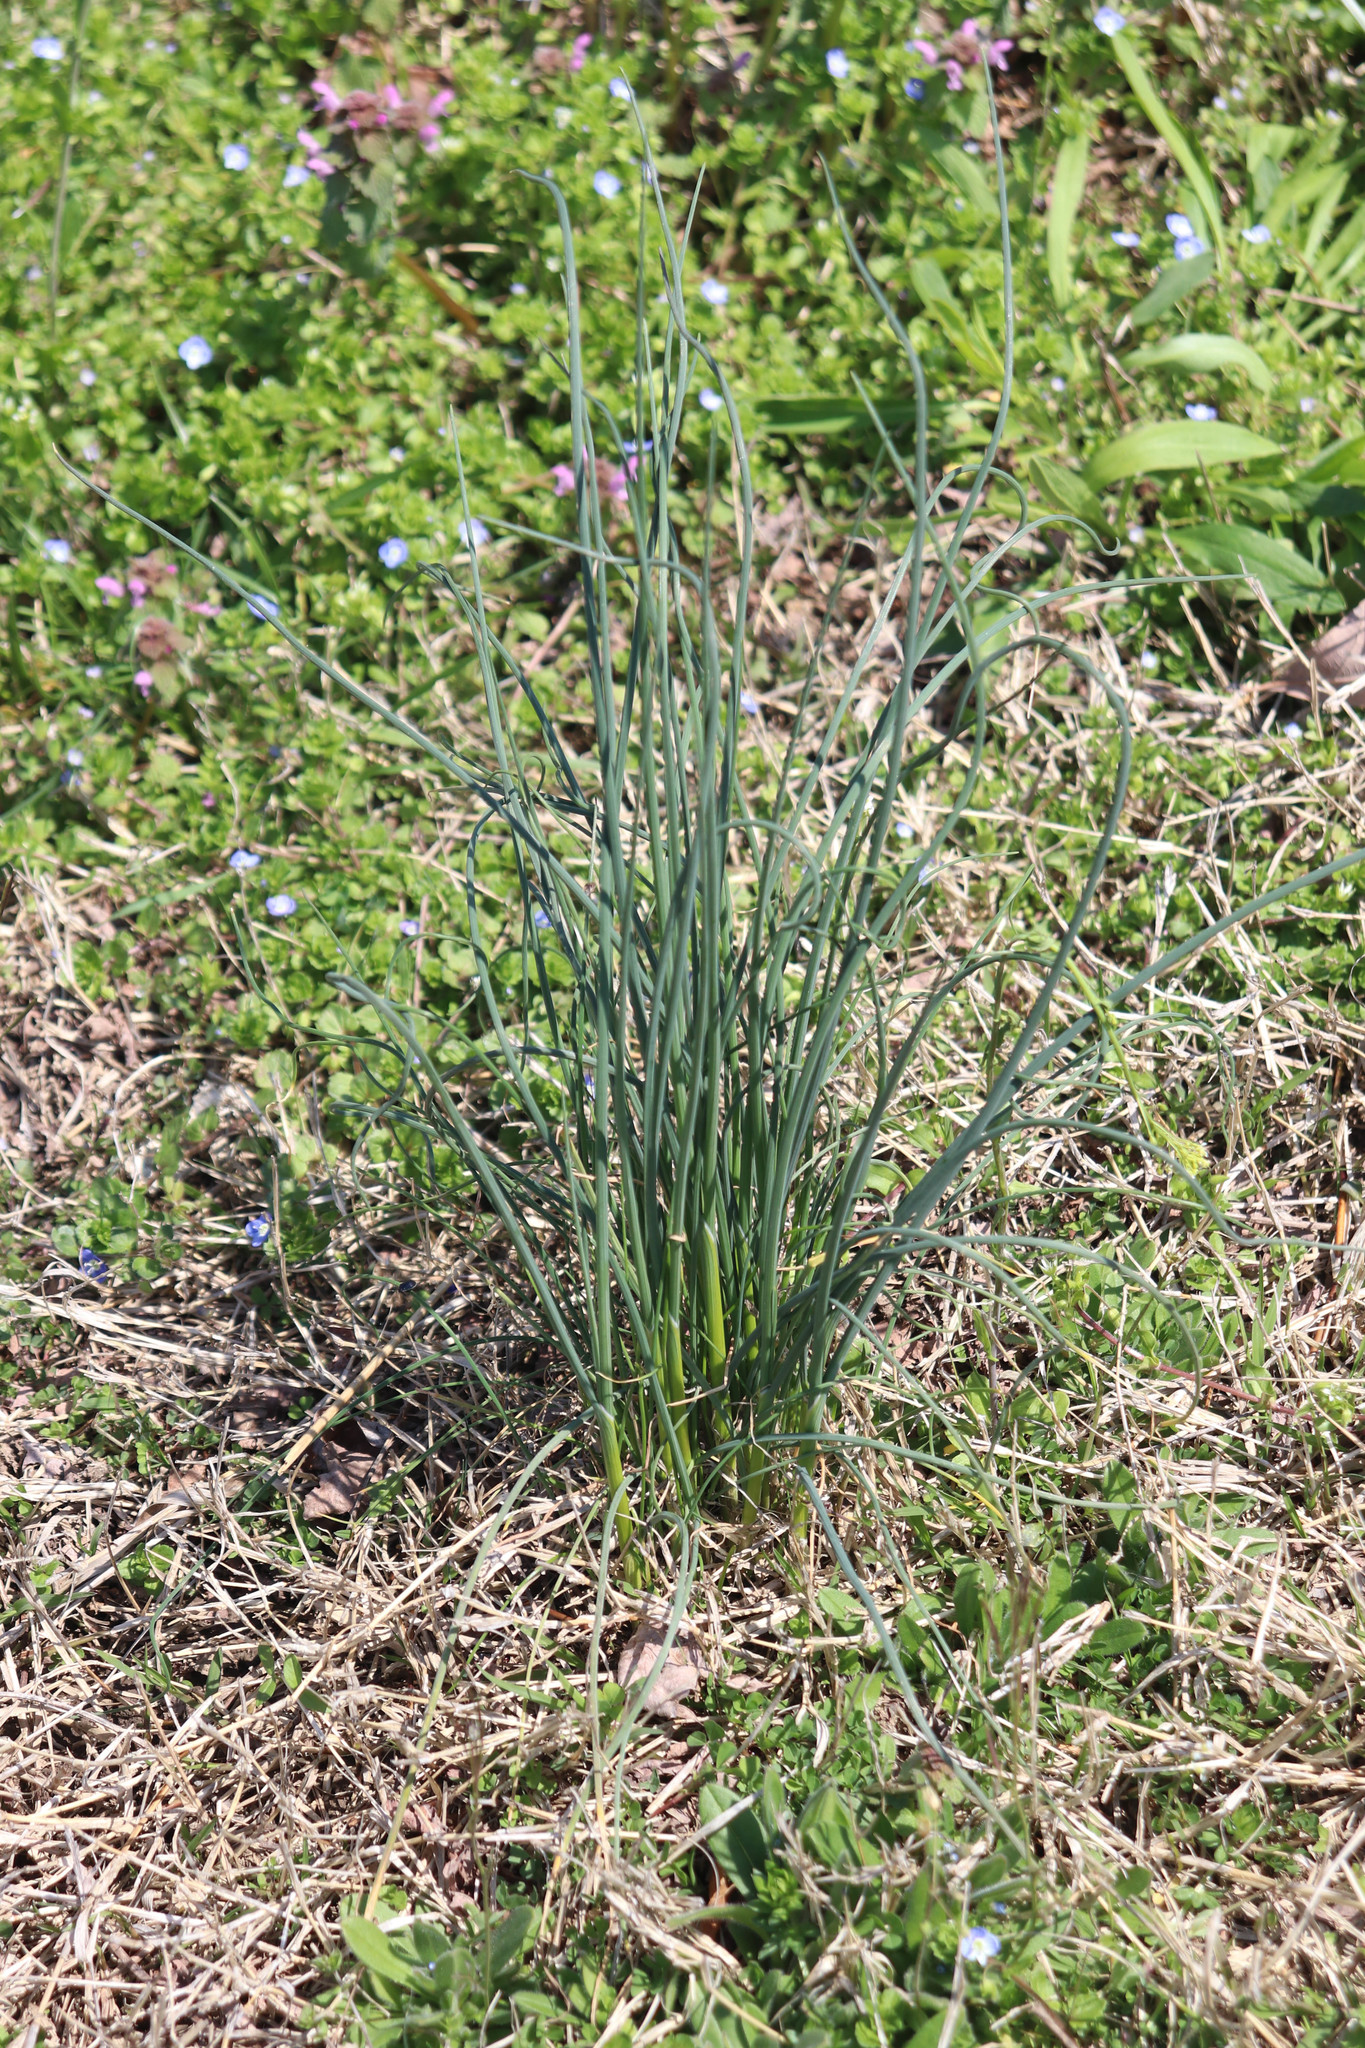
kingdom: Plantae
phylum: Tracheophyta
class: Liliopsida
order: Asparagales
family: Amaryllidaceae
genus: Allium
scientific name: Allium vineale
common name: Crow garlic
